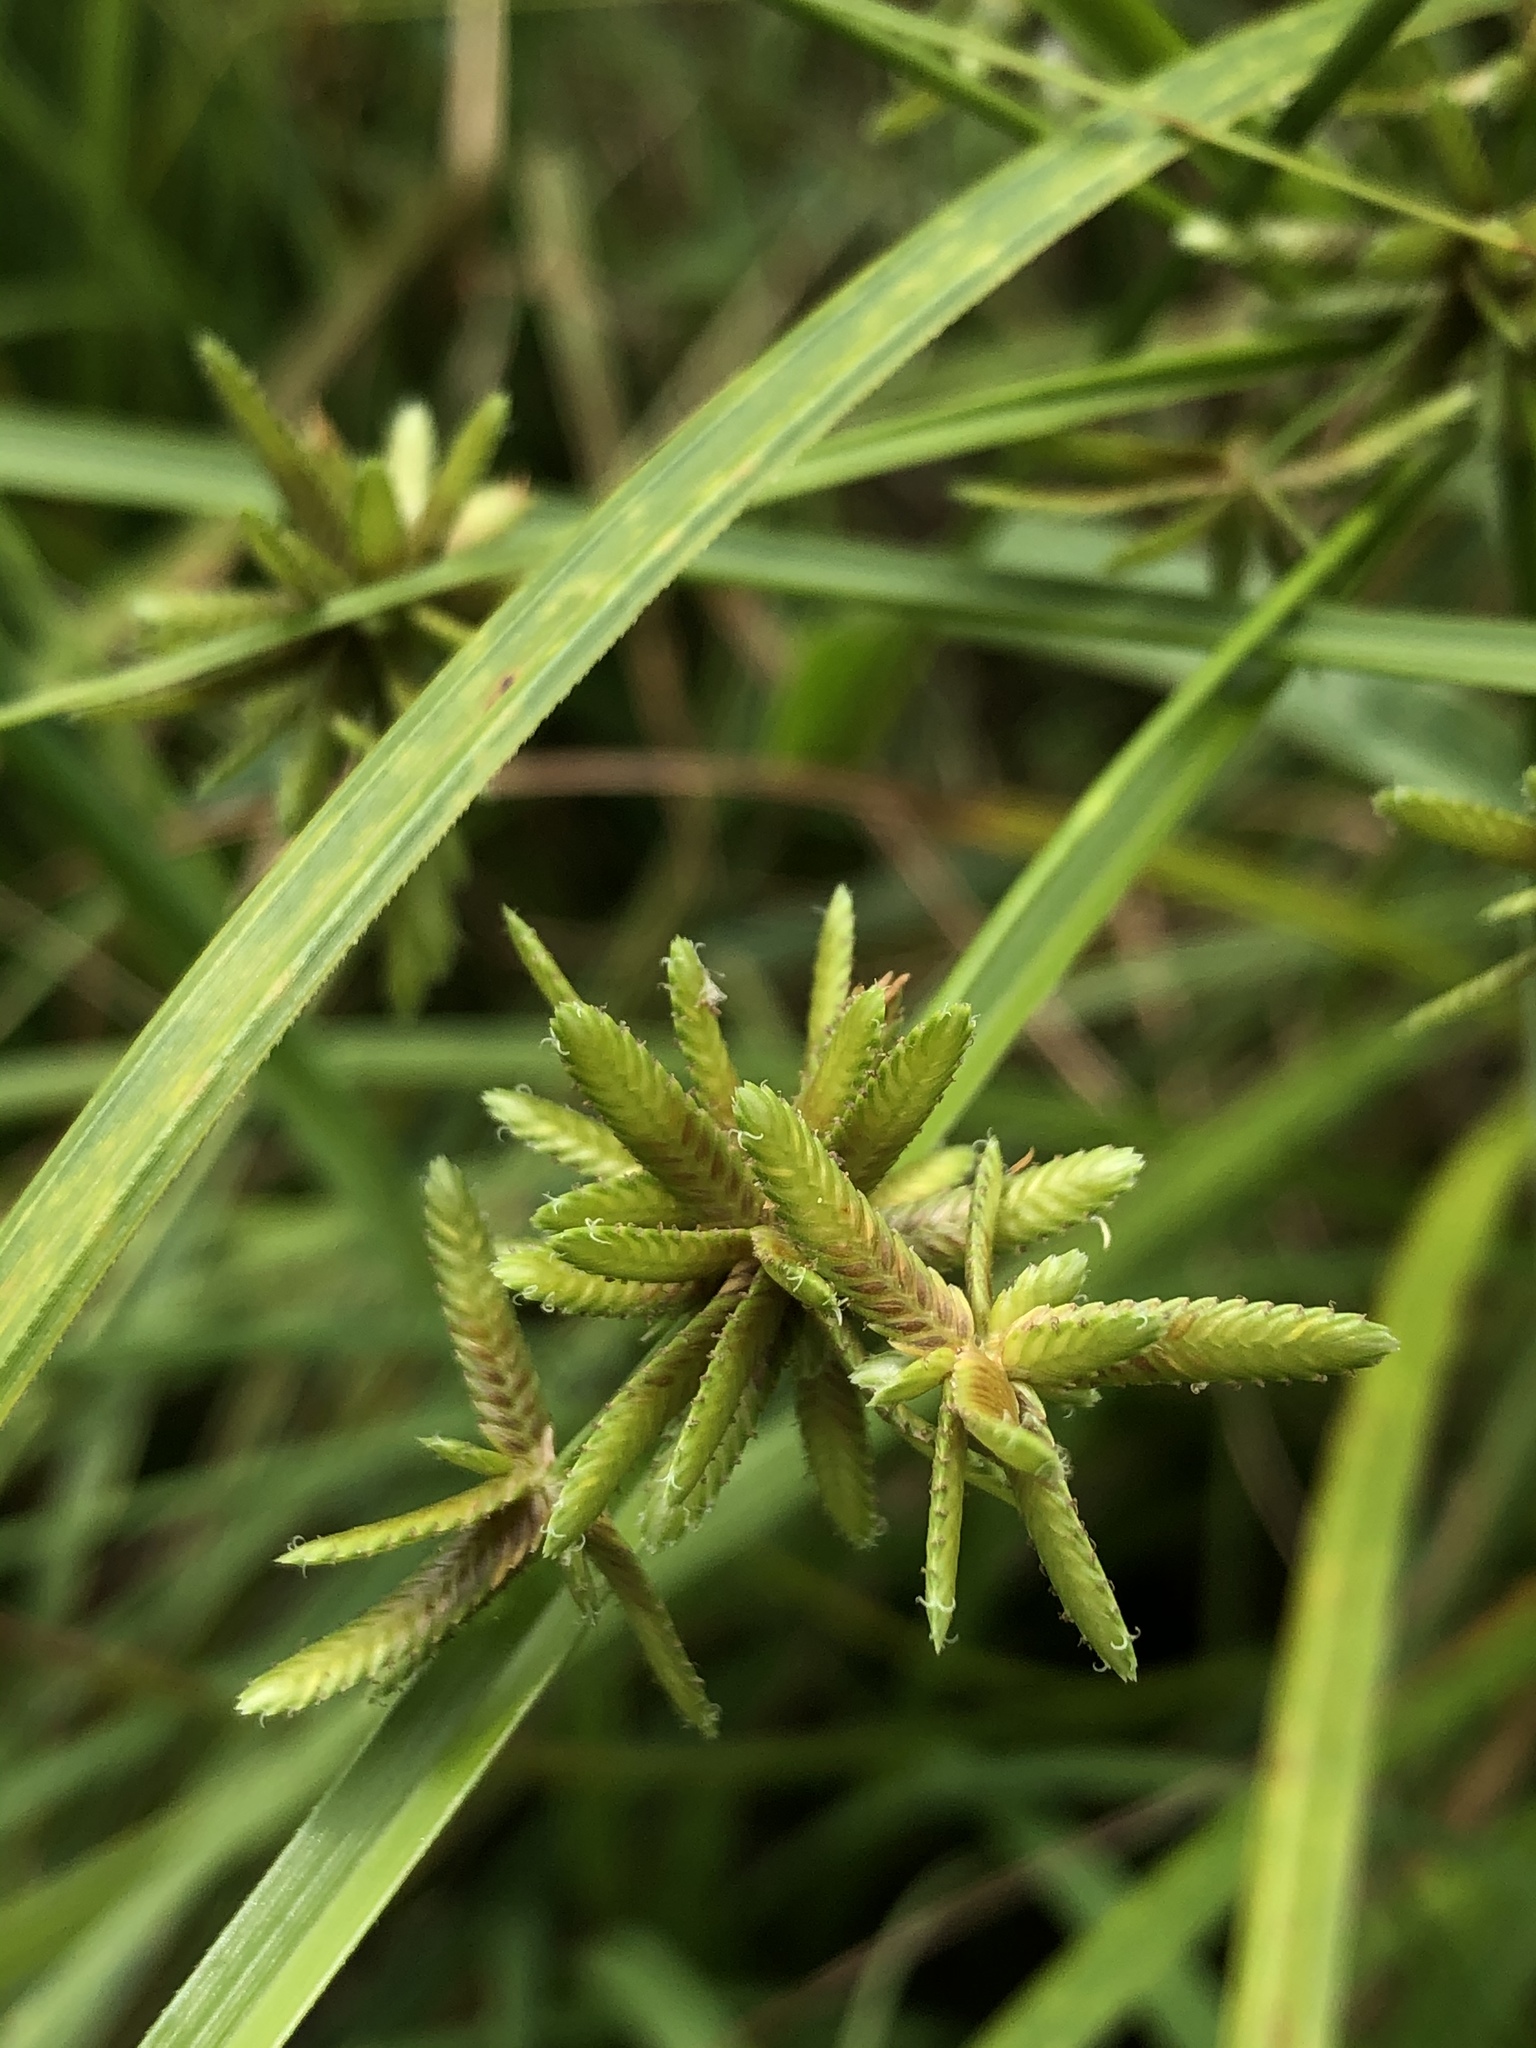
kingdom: Plantae
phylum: Tracheophyta
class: Liliopsida
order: Poales
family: Cyperaceae
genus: Cyperus
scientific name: Cyperus ochraceus
